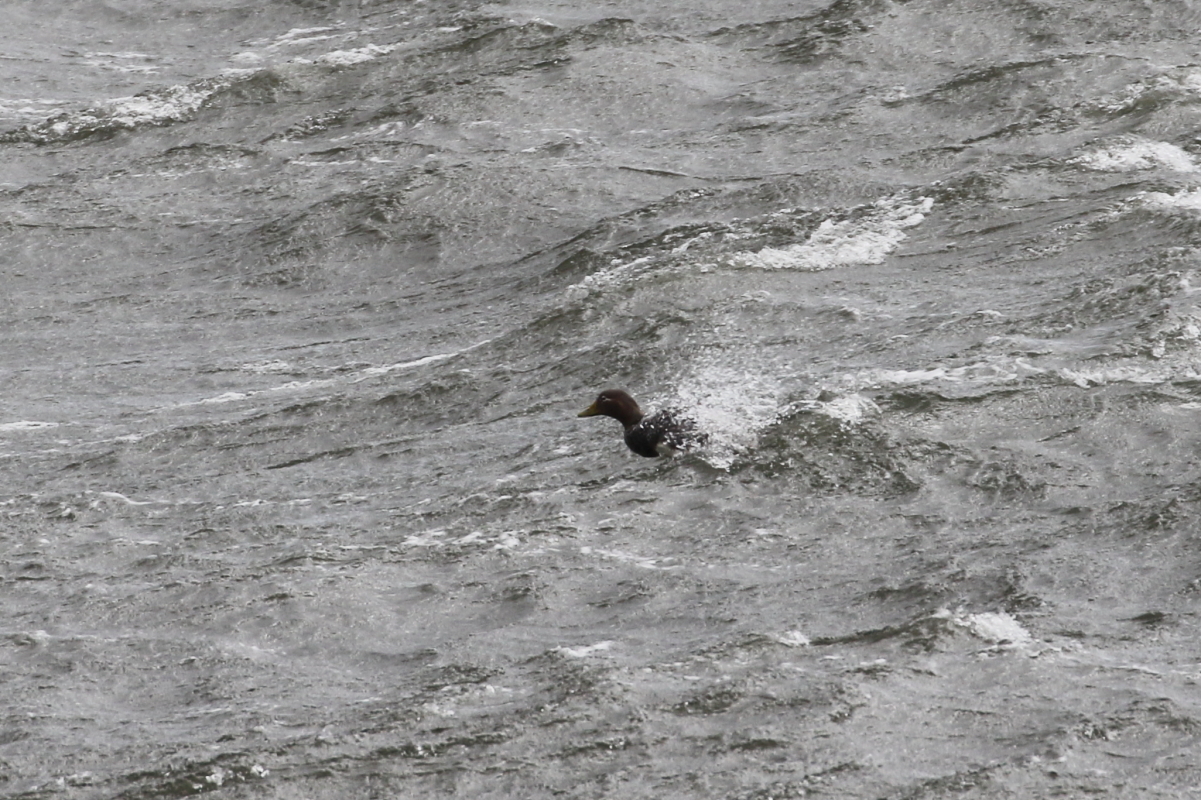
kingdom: Animalia
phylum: Chordata
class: Aves
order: Anseriformes
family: Anatidae
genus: Tachyeres
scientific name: Tachyeres brachypterus
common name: Falkland steamer duck
